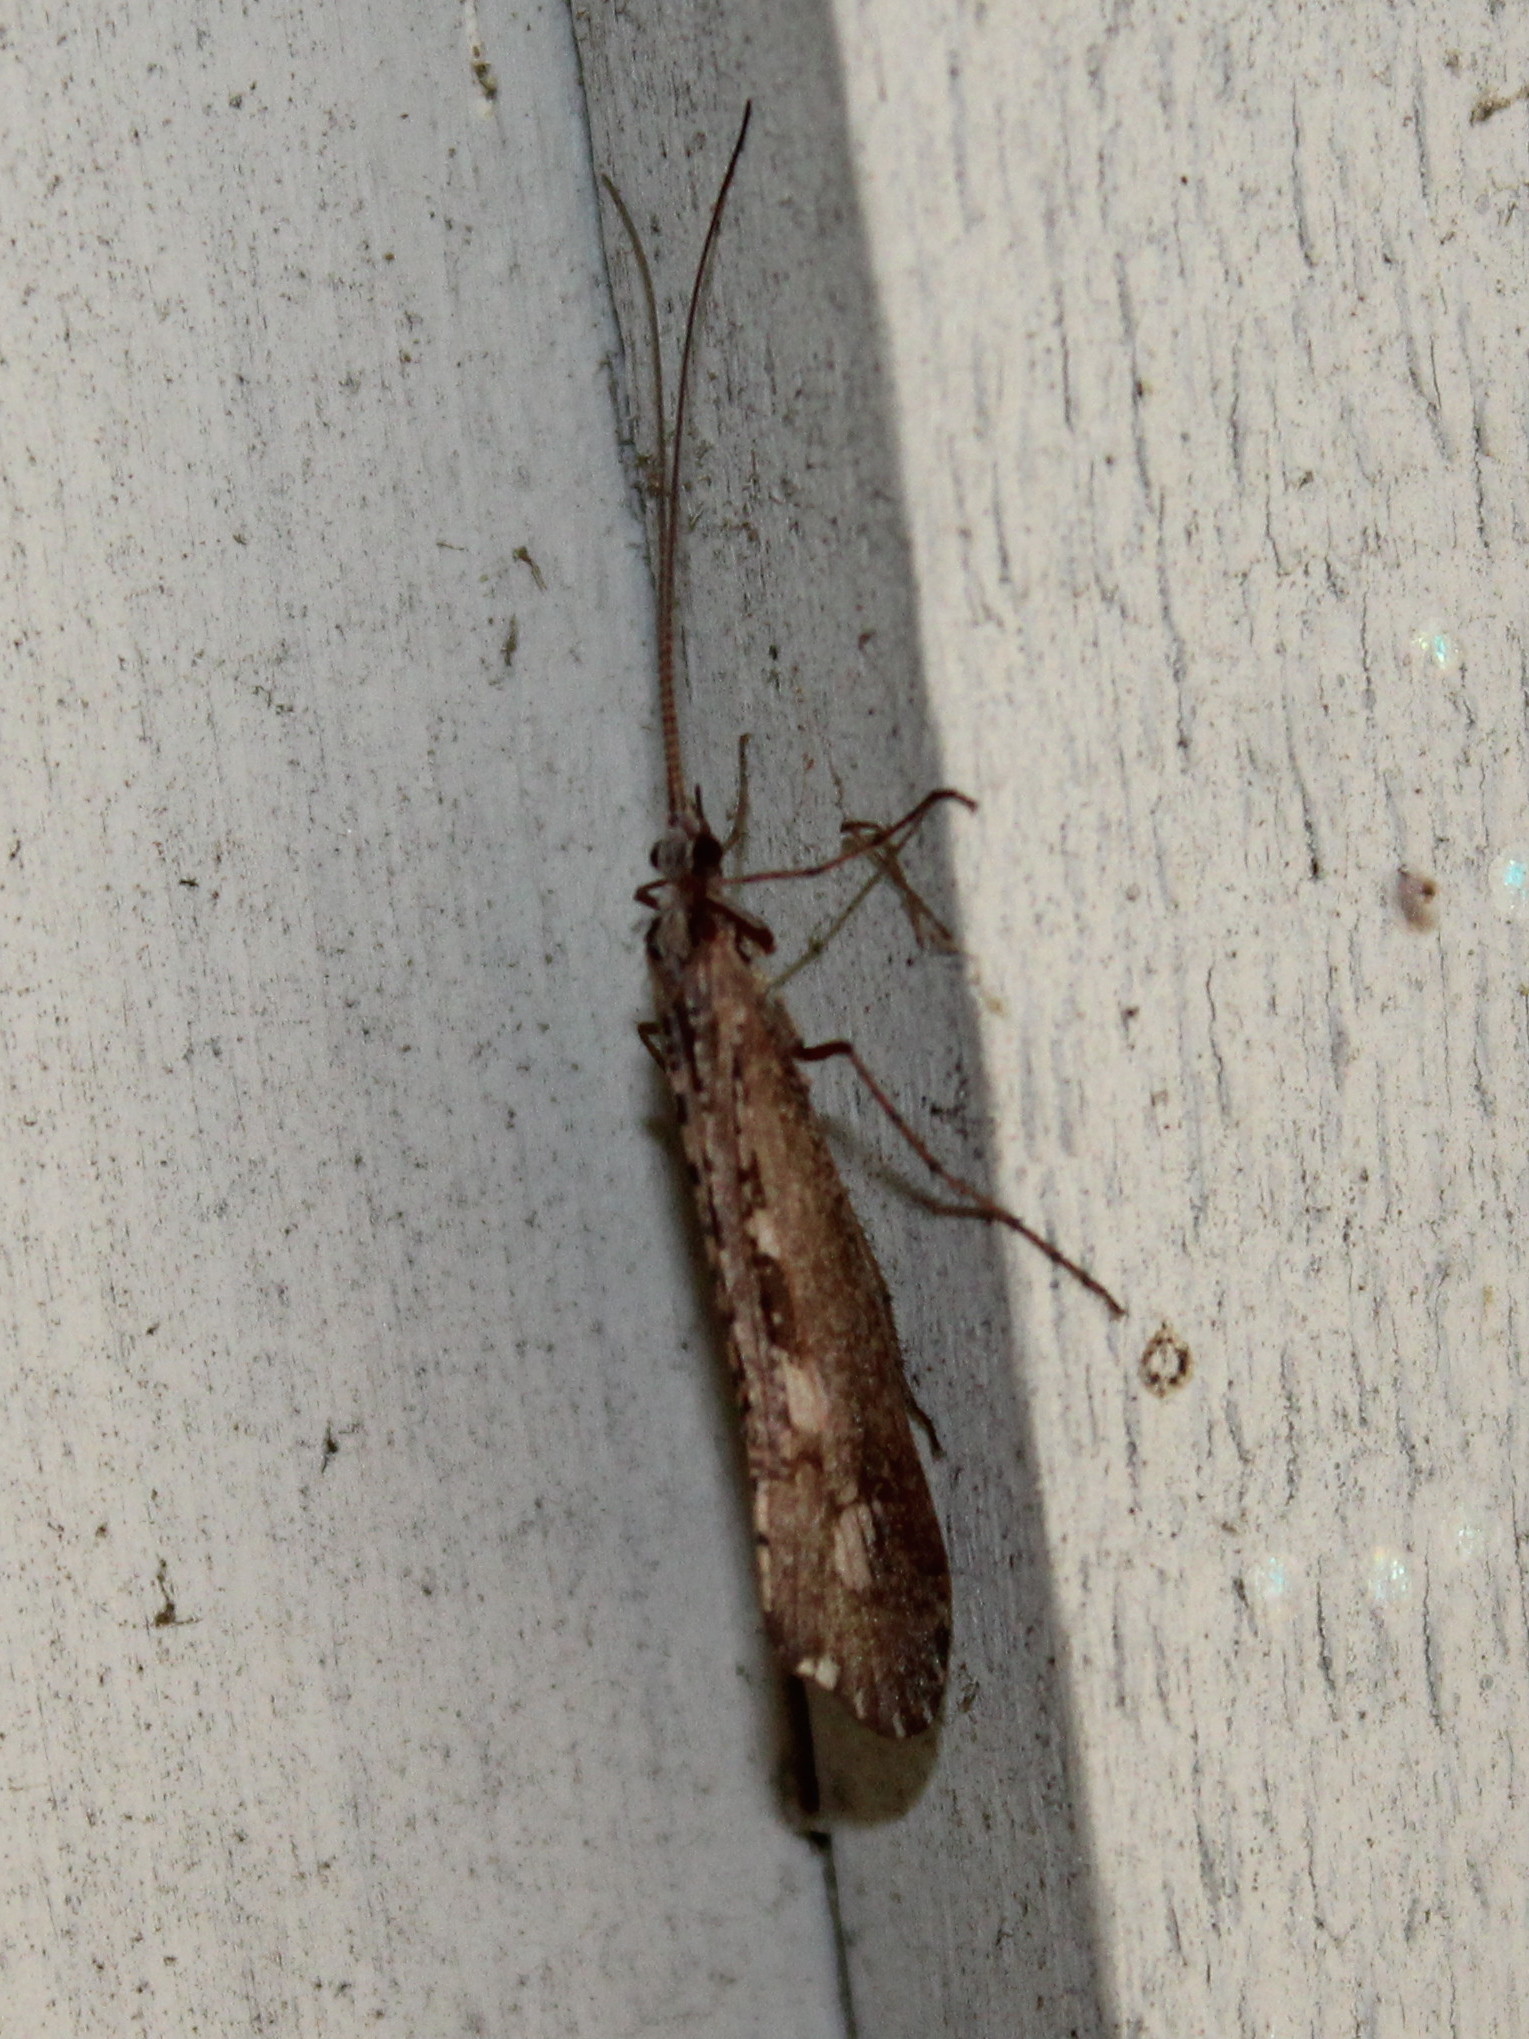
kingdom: Animalia
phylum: Arthropoda
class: Insecta
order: Trichoptera
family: Limnephilidae
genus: Glyphopsyche
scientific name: Glyphopsyche irrorata
